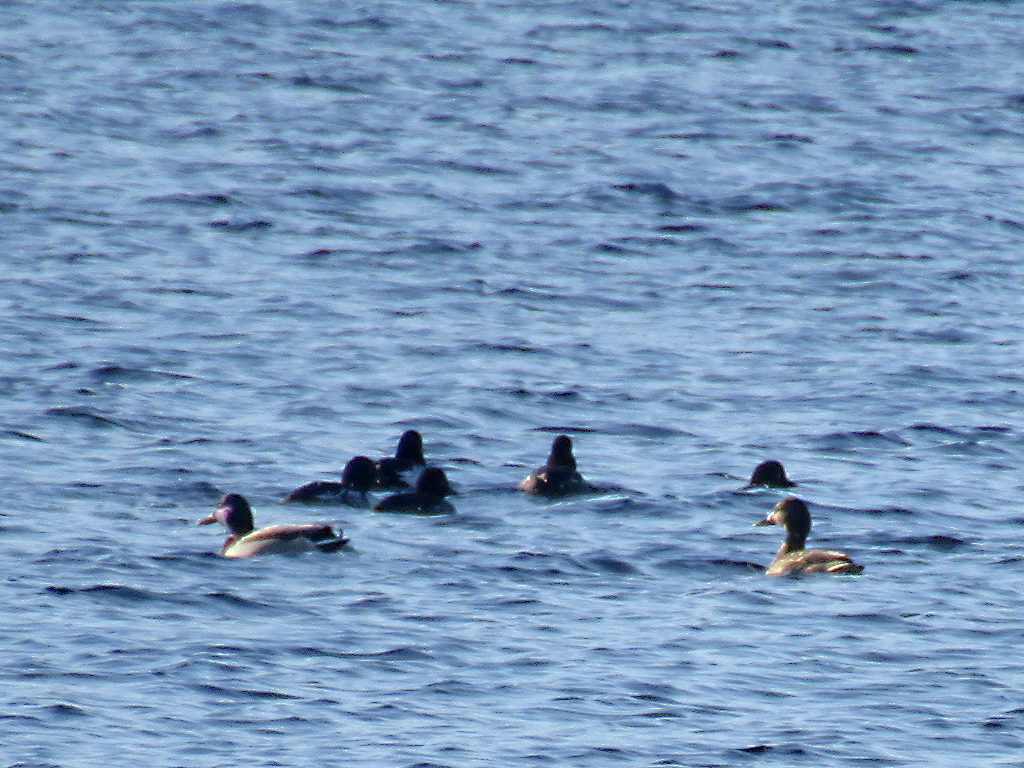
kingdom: Animalia
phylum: Chordata
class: Aves
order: Anseriformes
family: Anatidae
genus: Bucephala
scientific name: Bucephala clangula
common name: Common goldeneye
